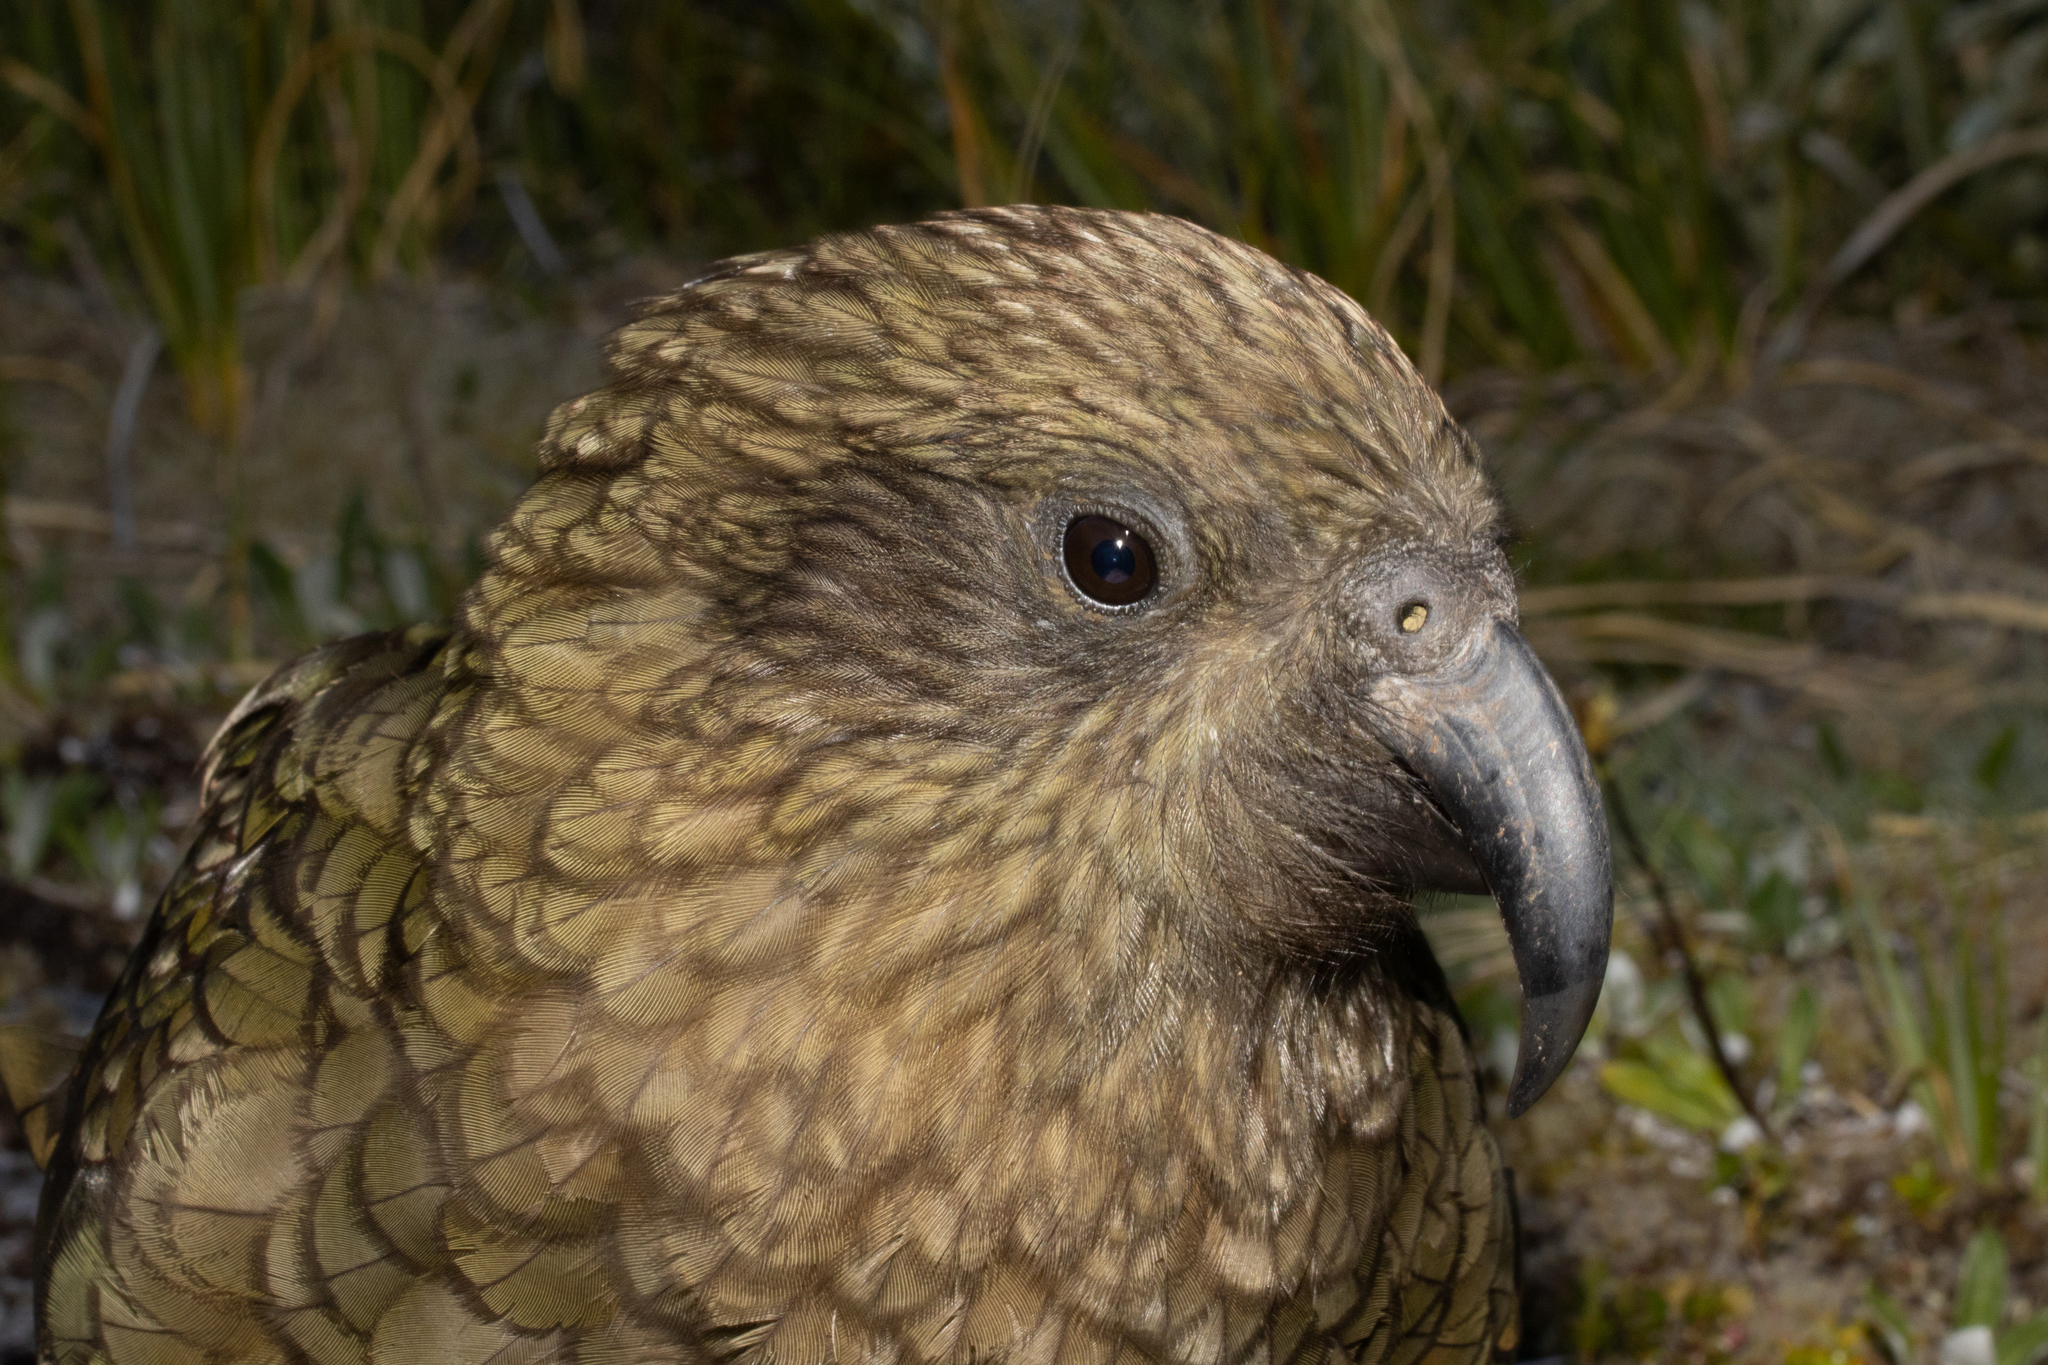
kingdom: Animalia
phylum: Chordata
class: Aves
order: Psittaciformes
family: Psittacidae
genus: Nestor
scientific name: Nestor notabilis
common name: Kea
